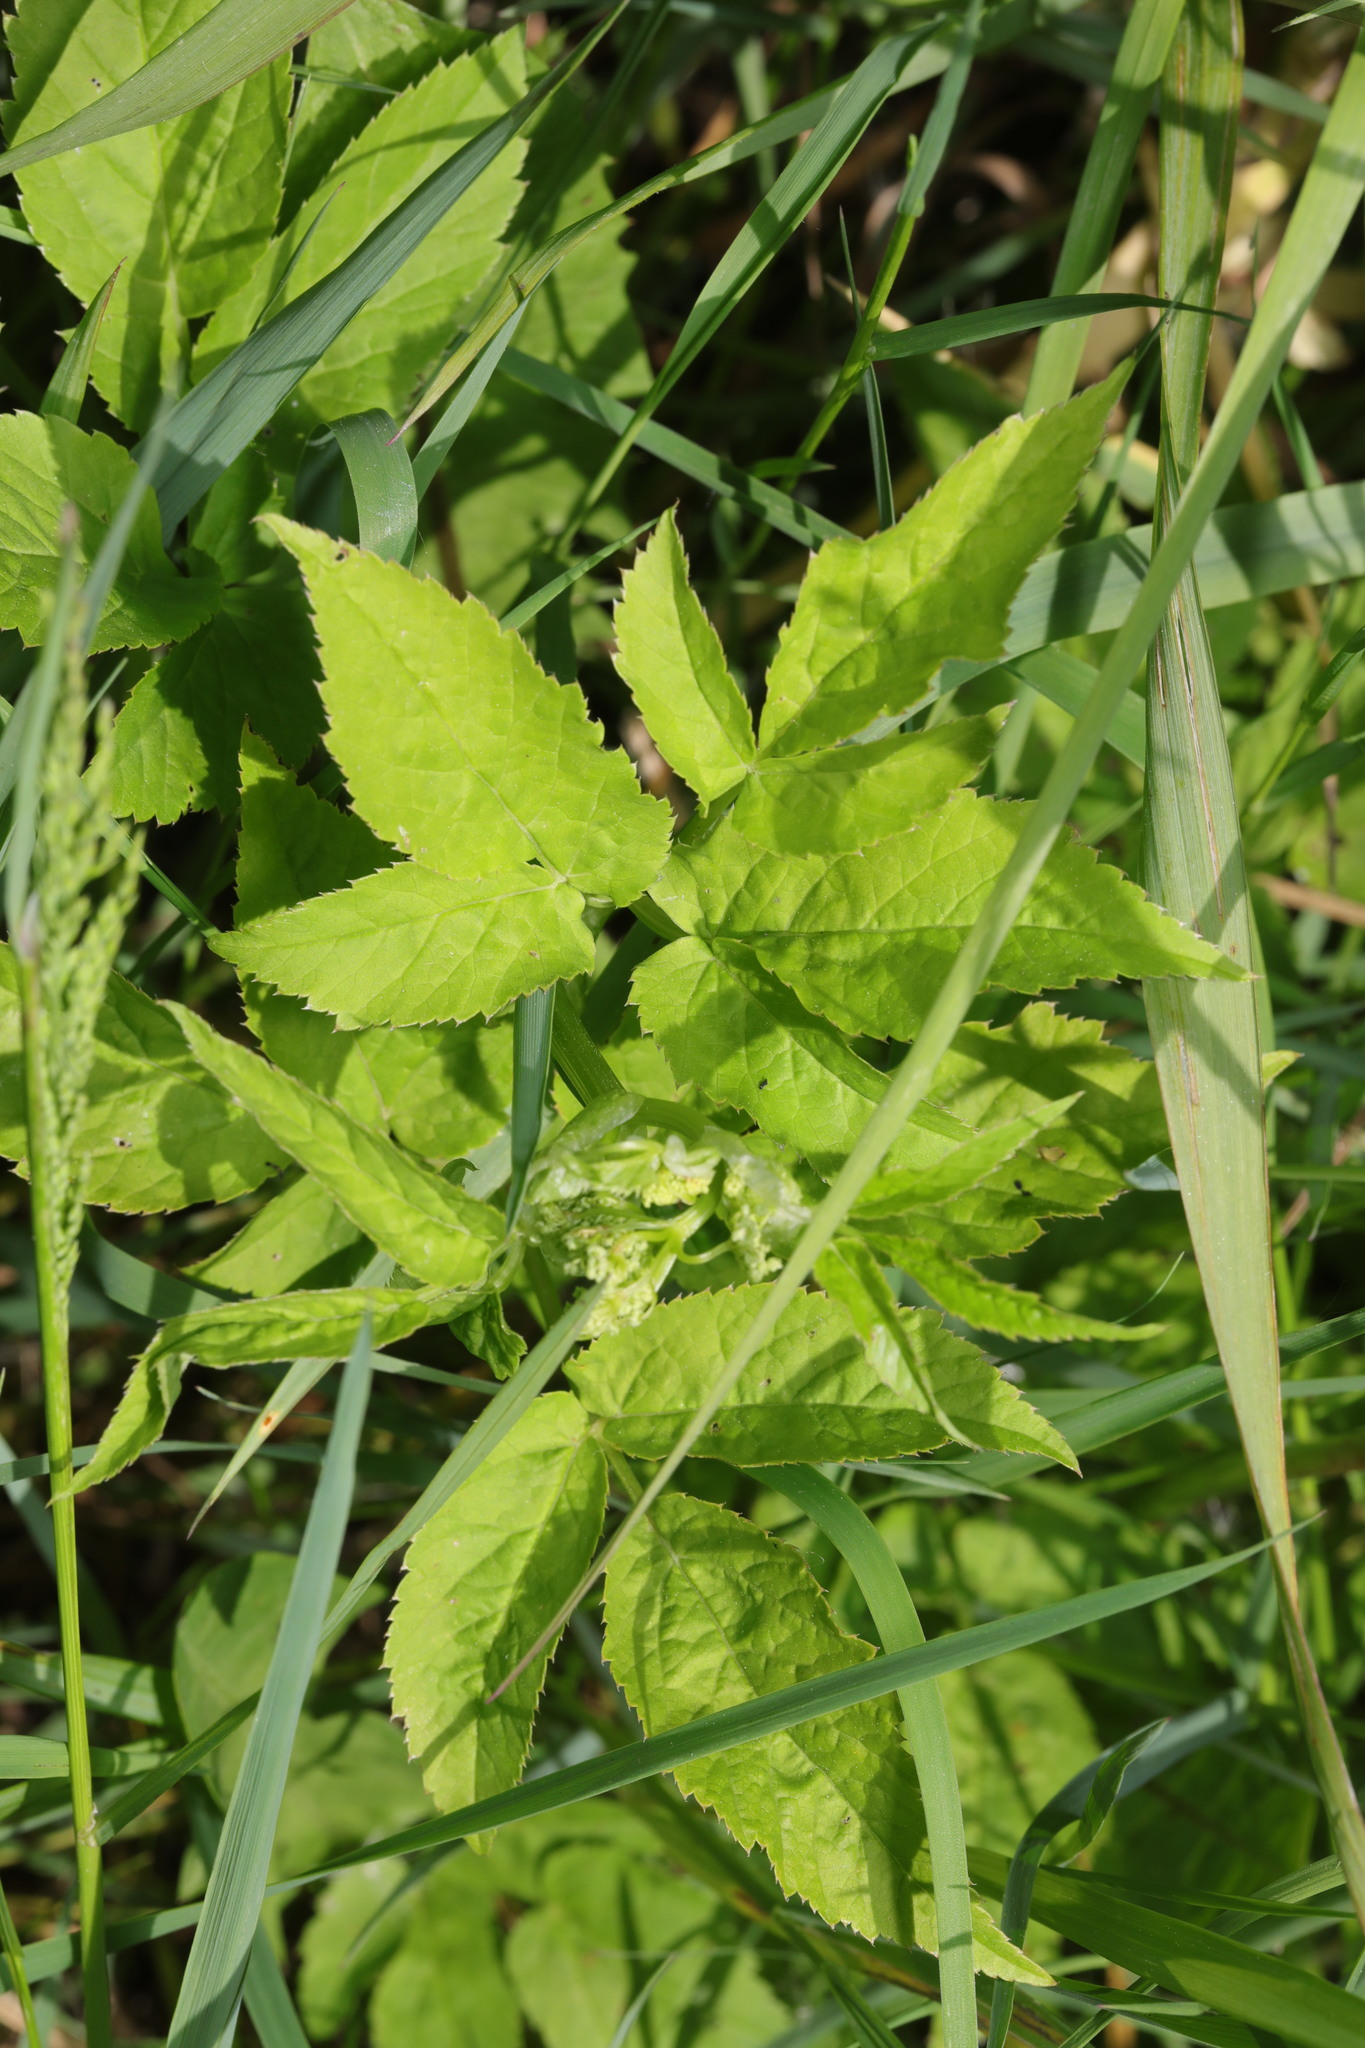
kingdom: Plantae
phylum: Tracheophyta
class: Magnoliopsida
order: Apiales
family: Apiaceae
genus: Aegopodium
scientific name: Aegopodium podagraria
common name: Ground-elder
